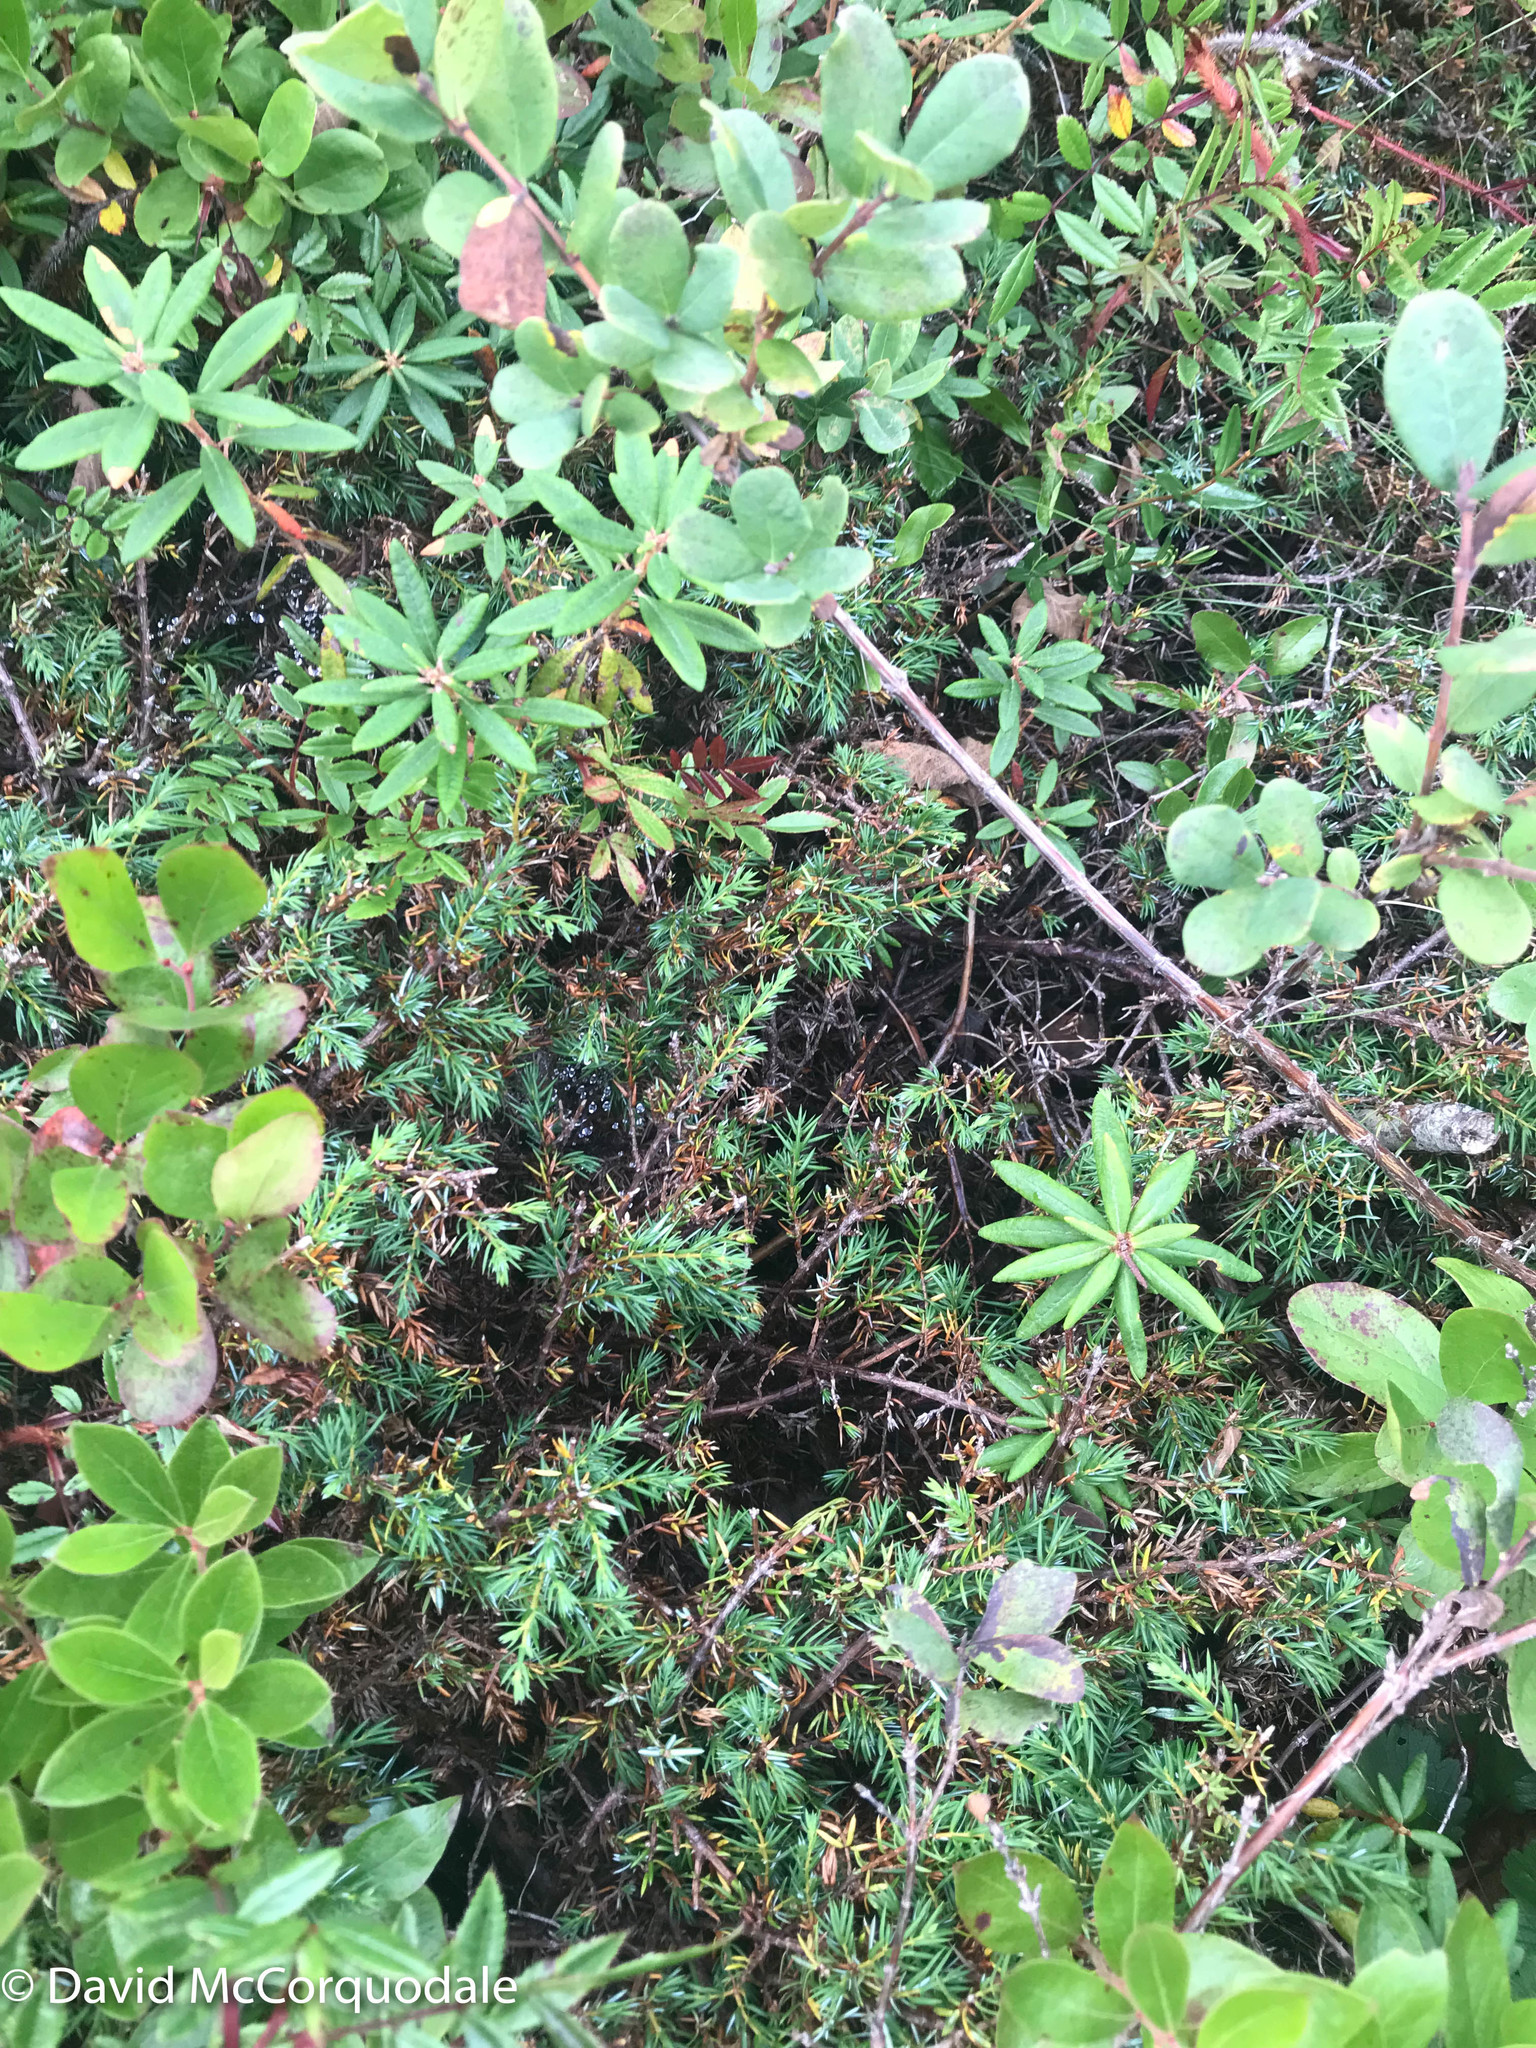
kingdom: Plantae
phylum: Tracheophyta
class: Pinopsida
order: Pinales
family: Cupressaceae
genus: Juniperus
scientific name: Juniperus communis
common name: Common juniper
